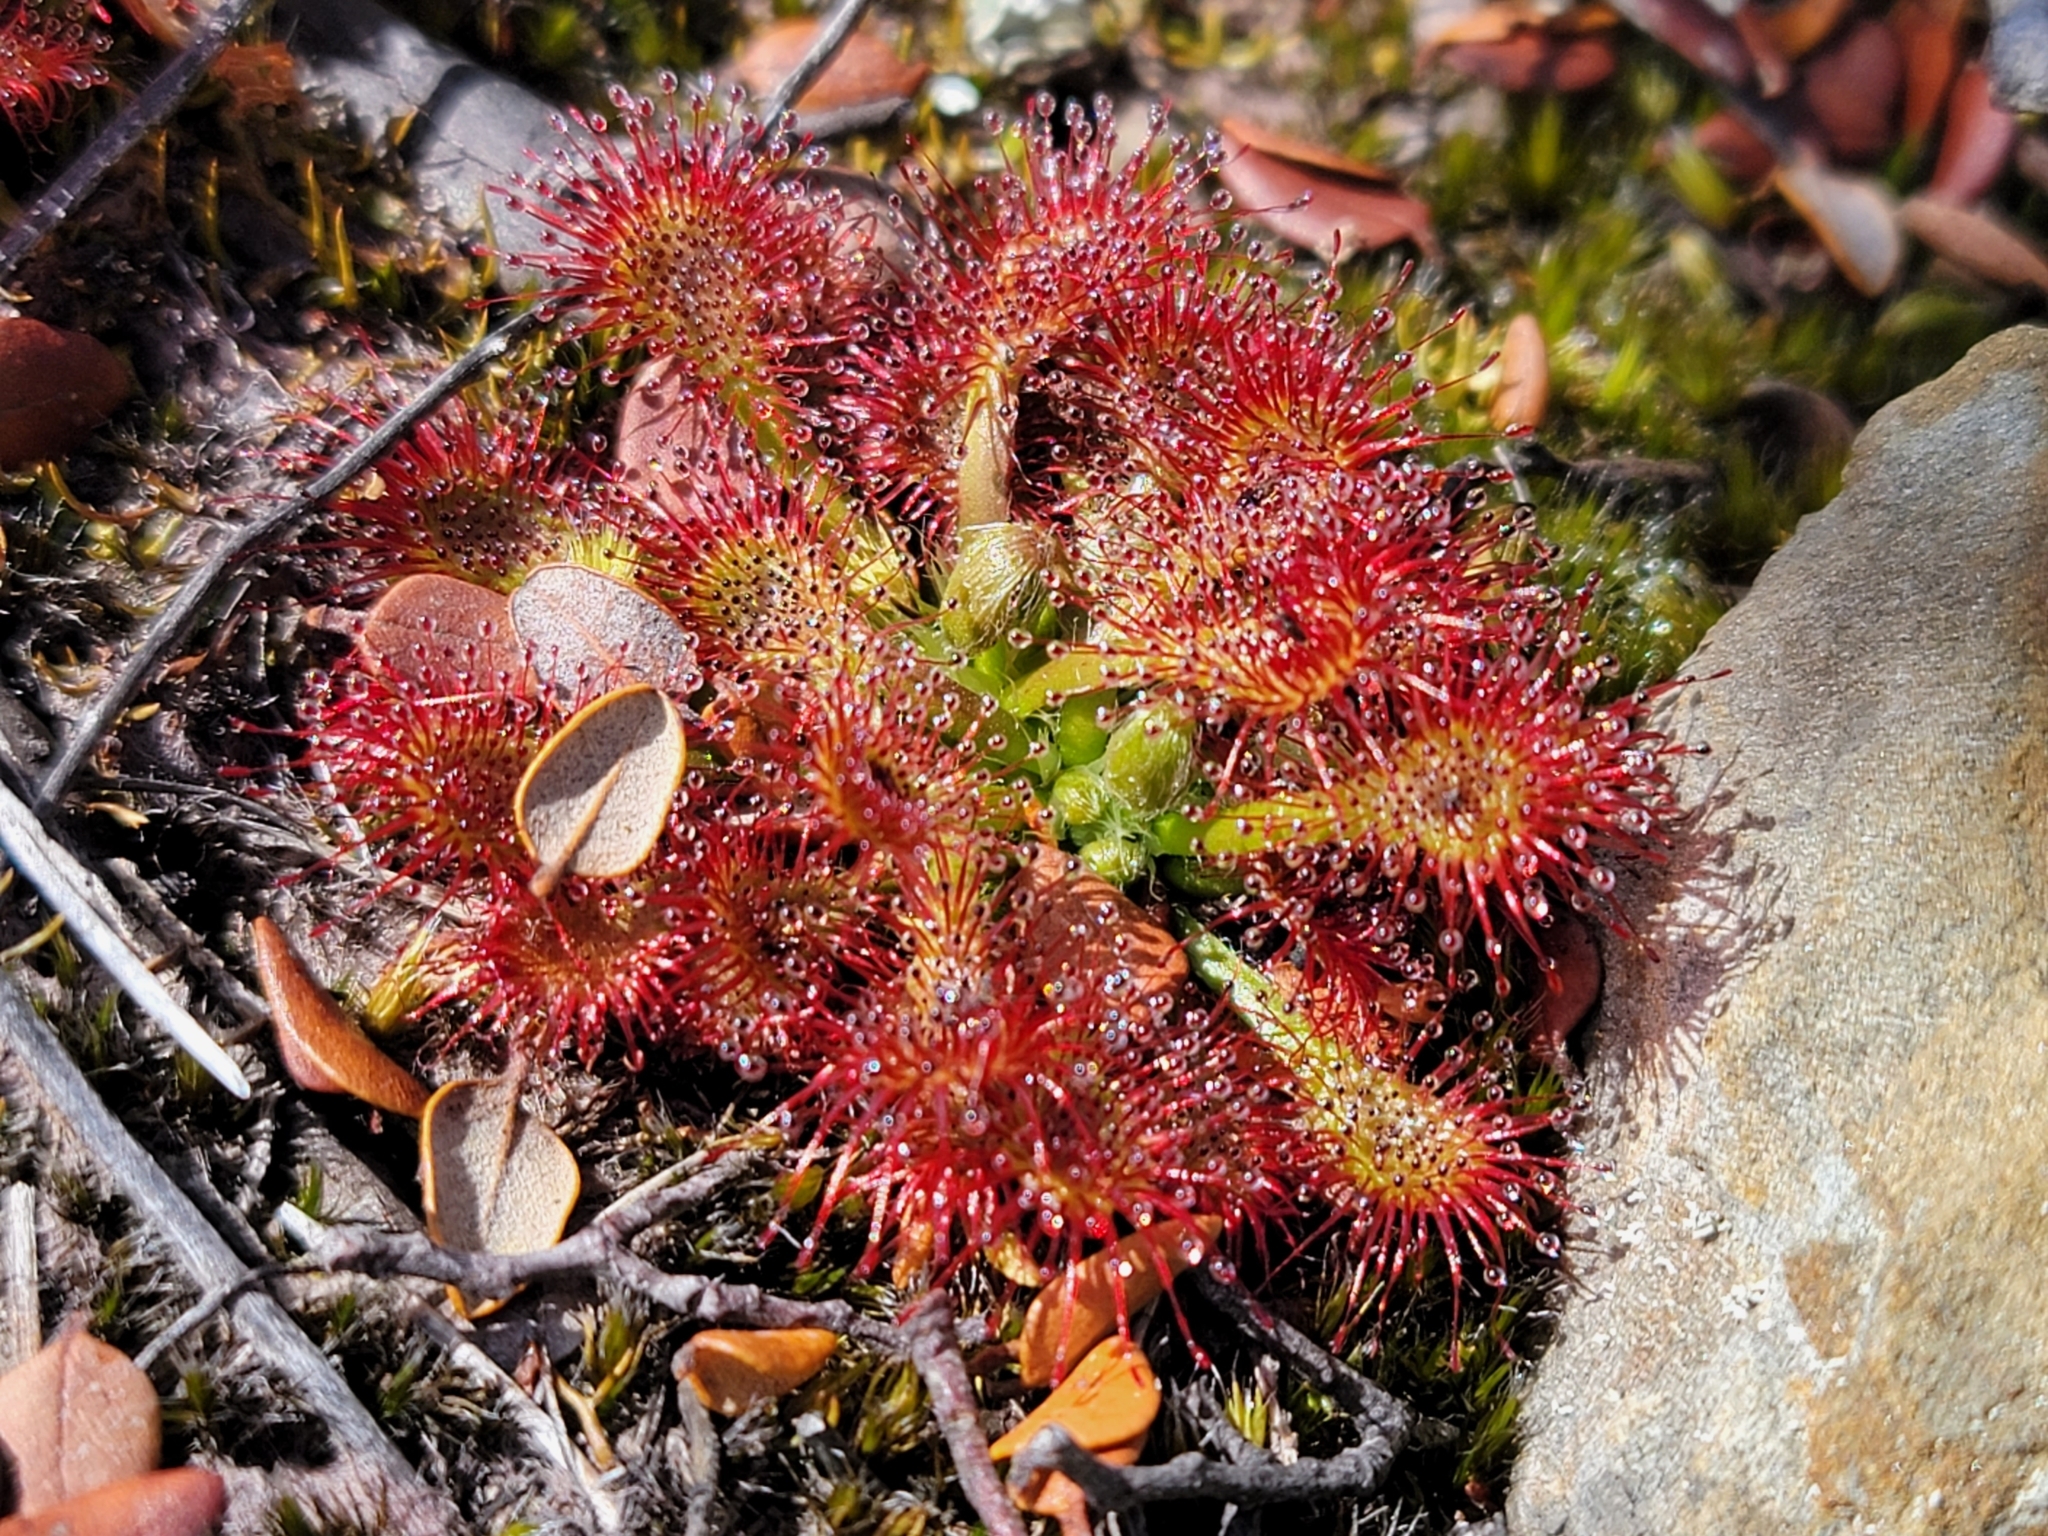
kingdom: Plantae
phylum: Tracheophyta
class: Magnoliopsida
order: Caryophyllales
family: Droseraceae
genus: Drosera
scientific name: Drosera spatulata
